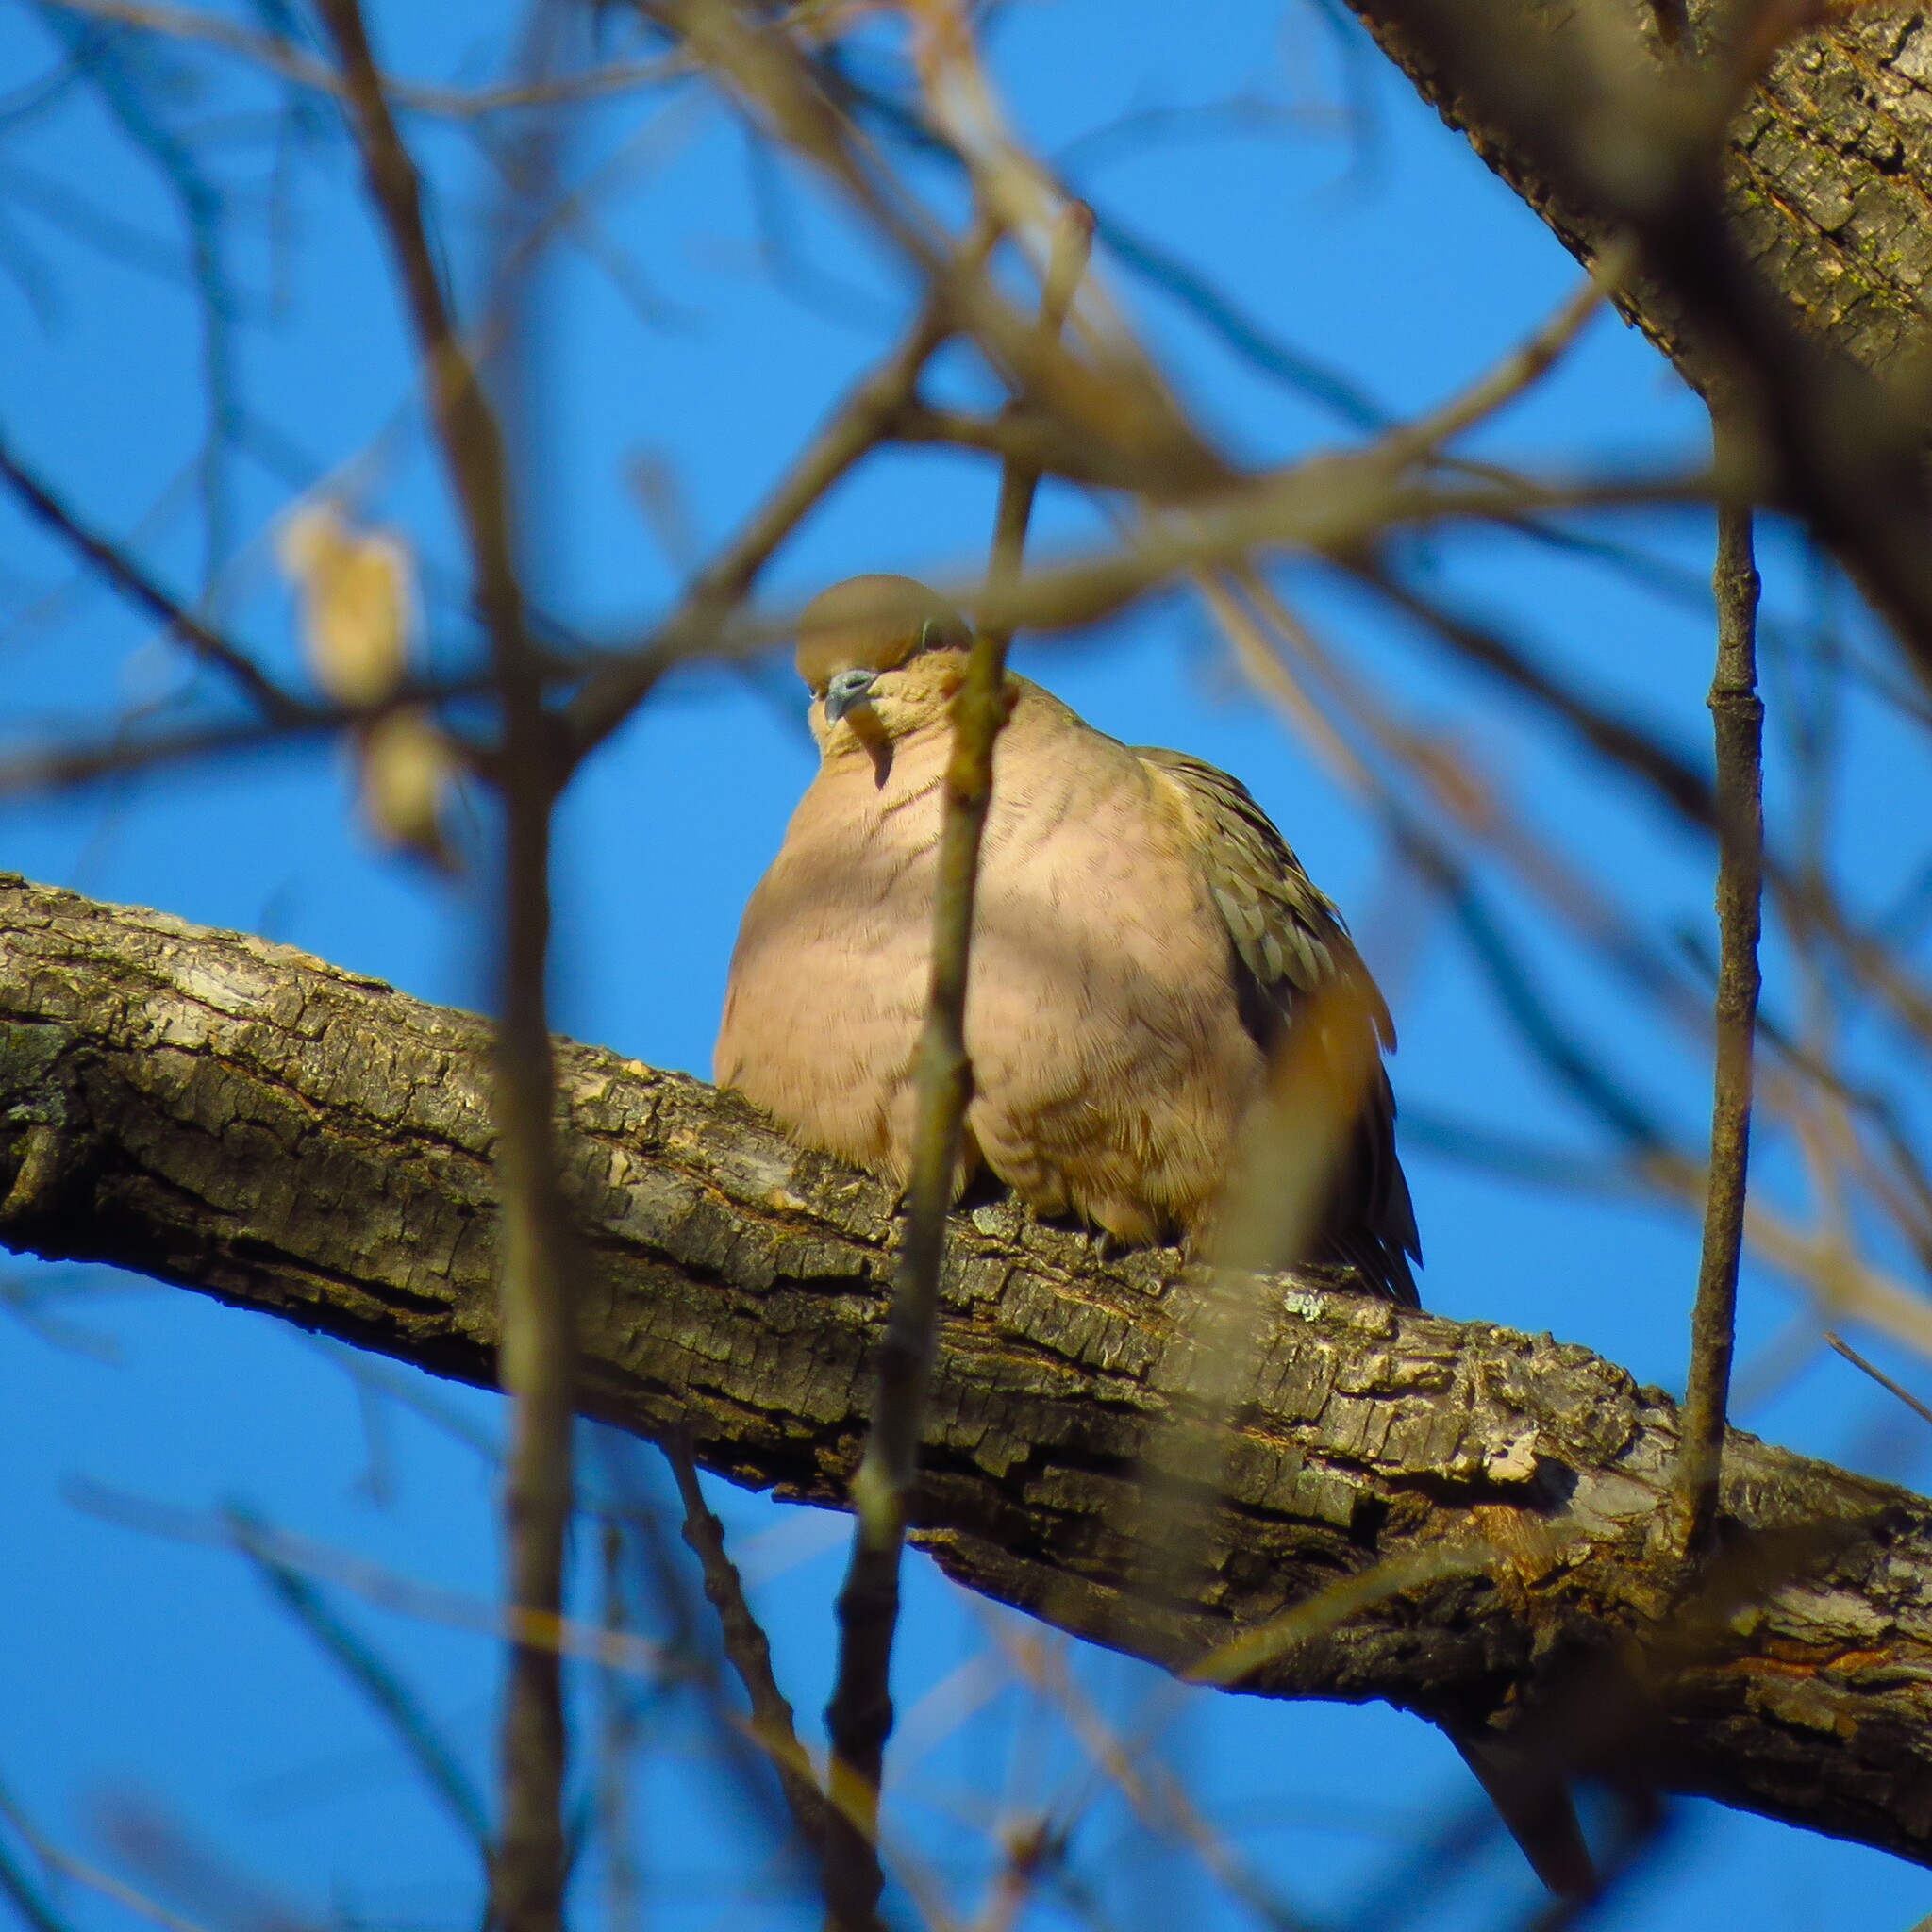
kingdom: Animalia
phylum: Chordata
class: Aves
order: Columbiformes
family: Columbidae
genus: Zenaida
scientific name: Zenaida macroura
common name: Mourning dove
